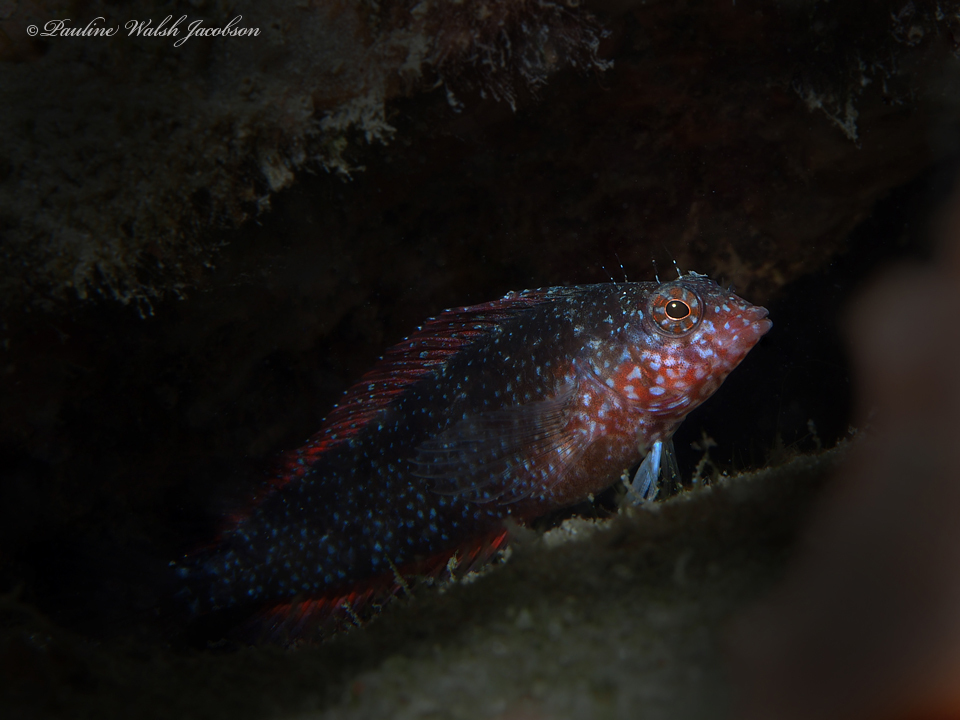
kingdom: Animalia
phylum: Chordata
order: Perciformes
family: Labrisomidae
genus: Malacoctenus
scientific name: Malacoctenus macropus
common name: Rosy blenny
